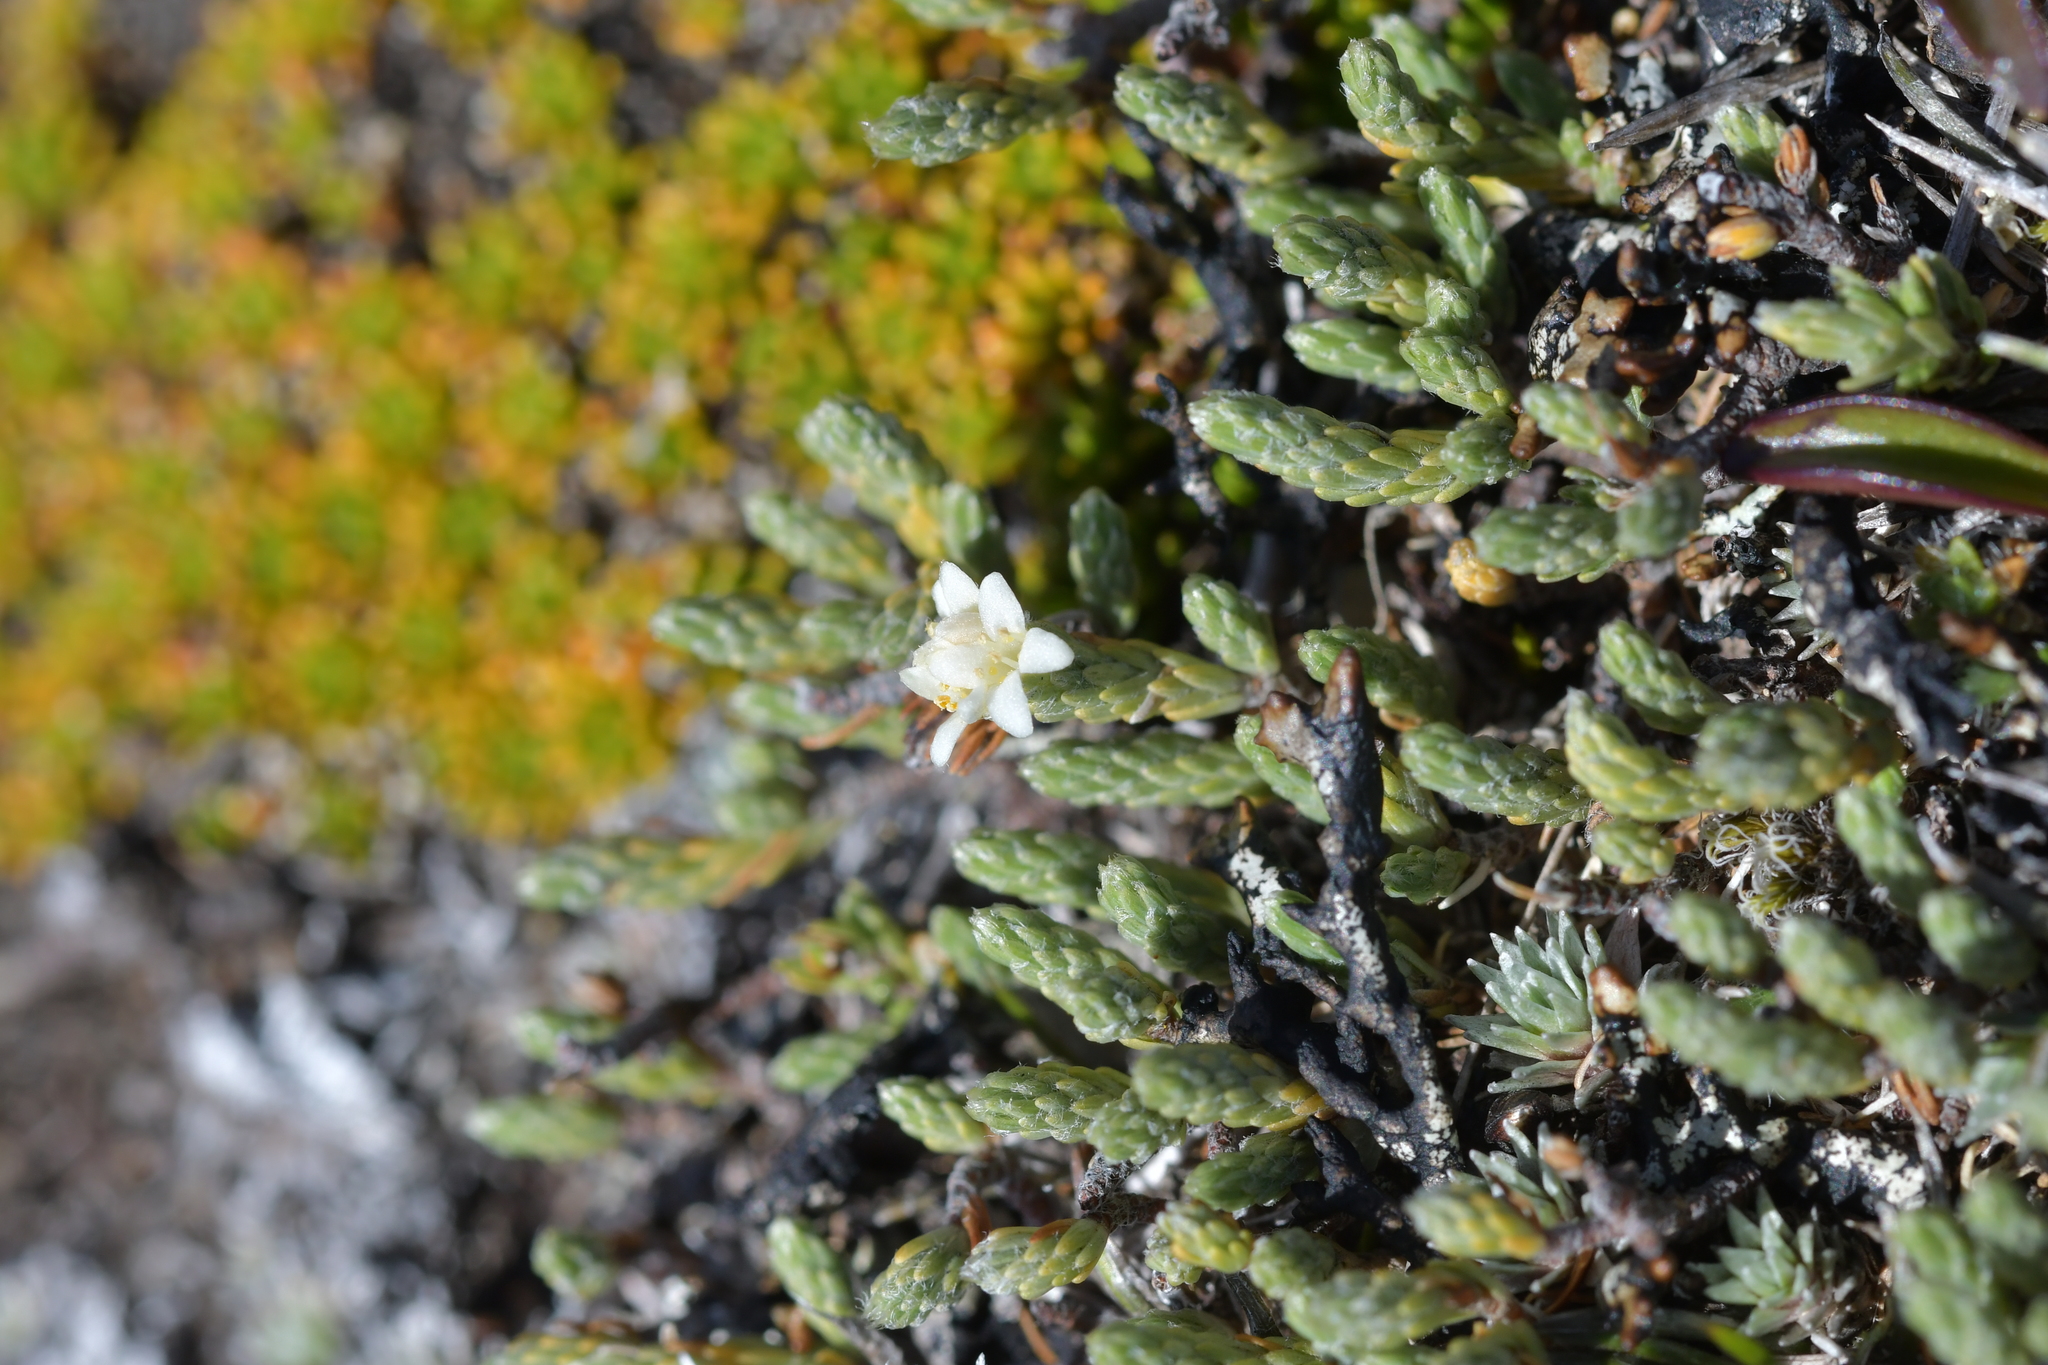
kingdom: Plantae
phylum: Tracheophyta
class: Magnoliopsida
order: Malvales
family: Thymelaeaceae
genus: Kelleria
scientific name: Kelleria dieffenbachii
